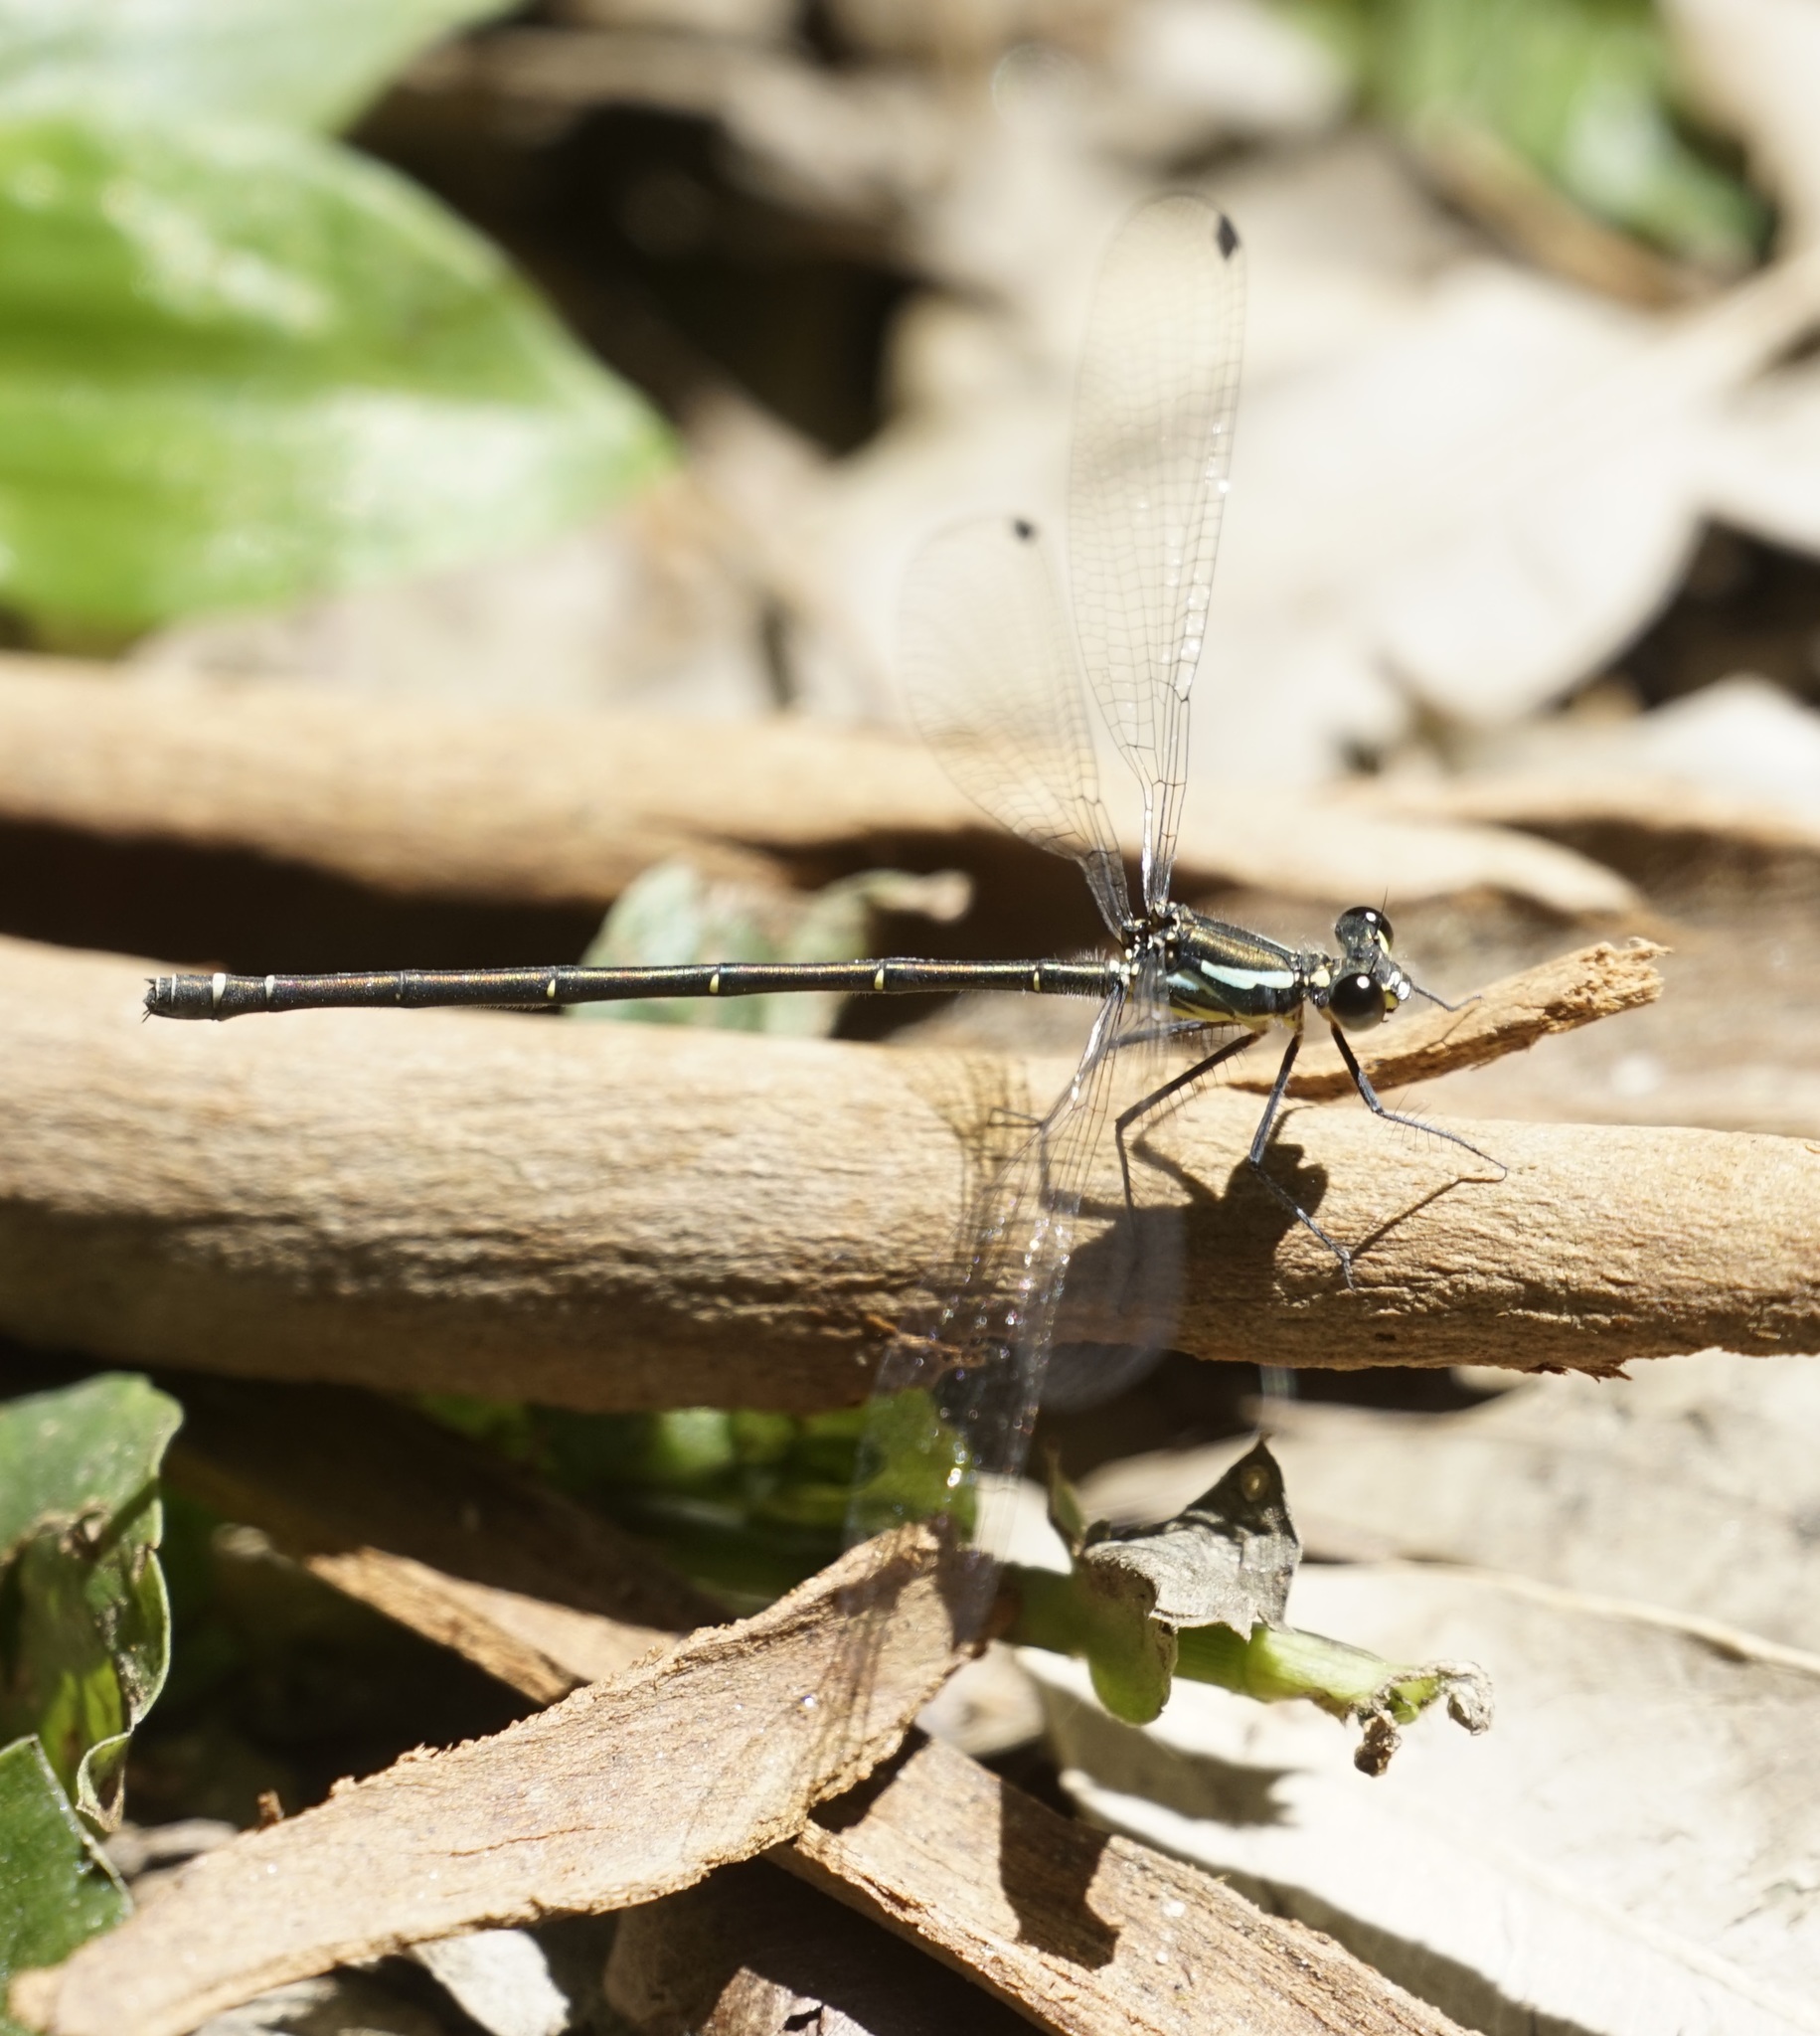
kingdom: Animalia
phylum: Arthropoda
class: Insecta
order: Odonata
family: Argiolestidae
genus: Austroargiolestes
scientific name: Austroargiolestes icteromelas
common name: Common flatwing
